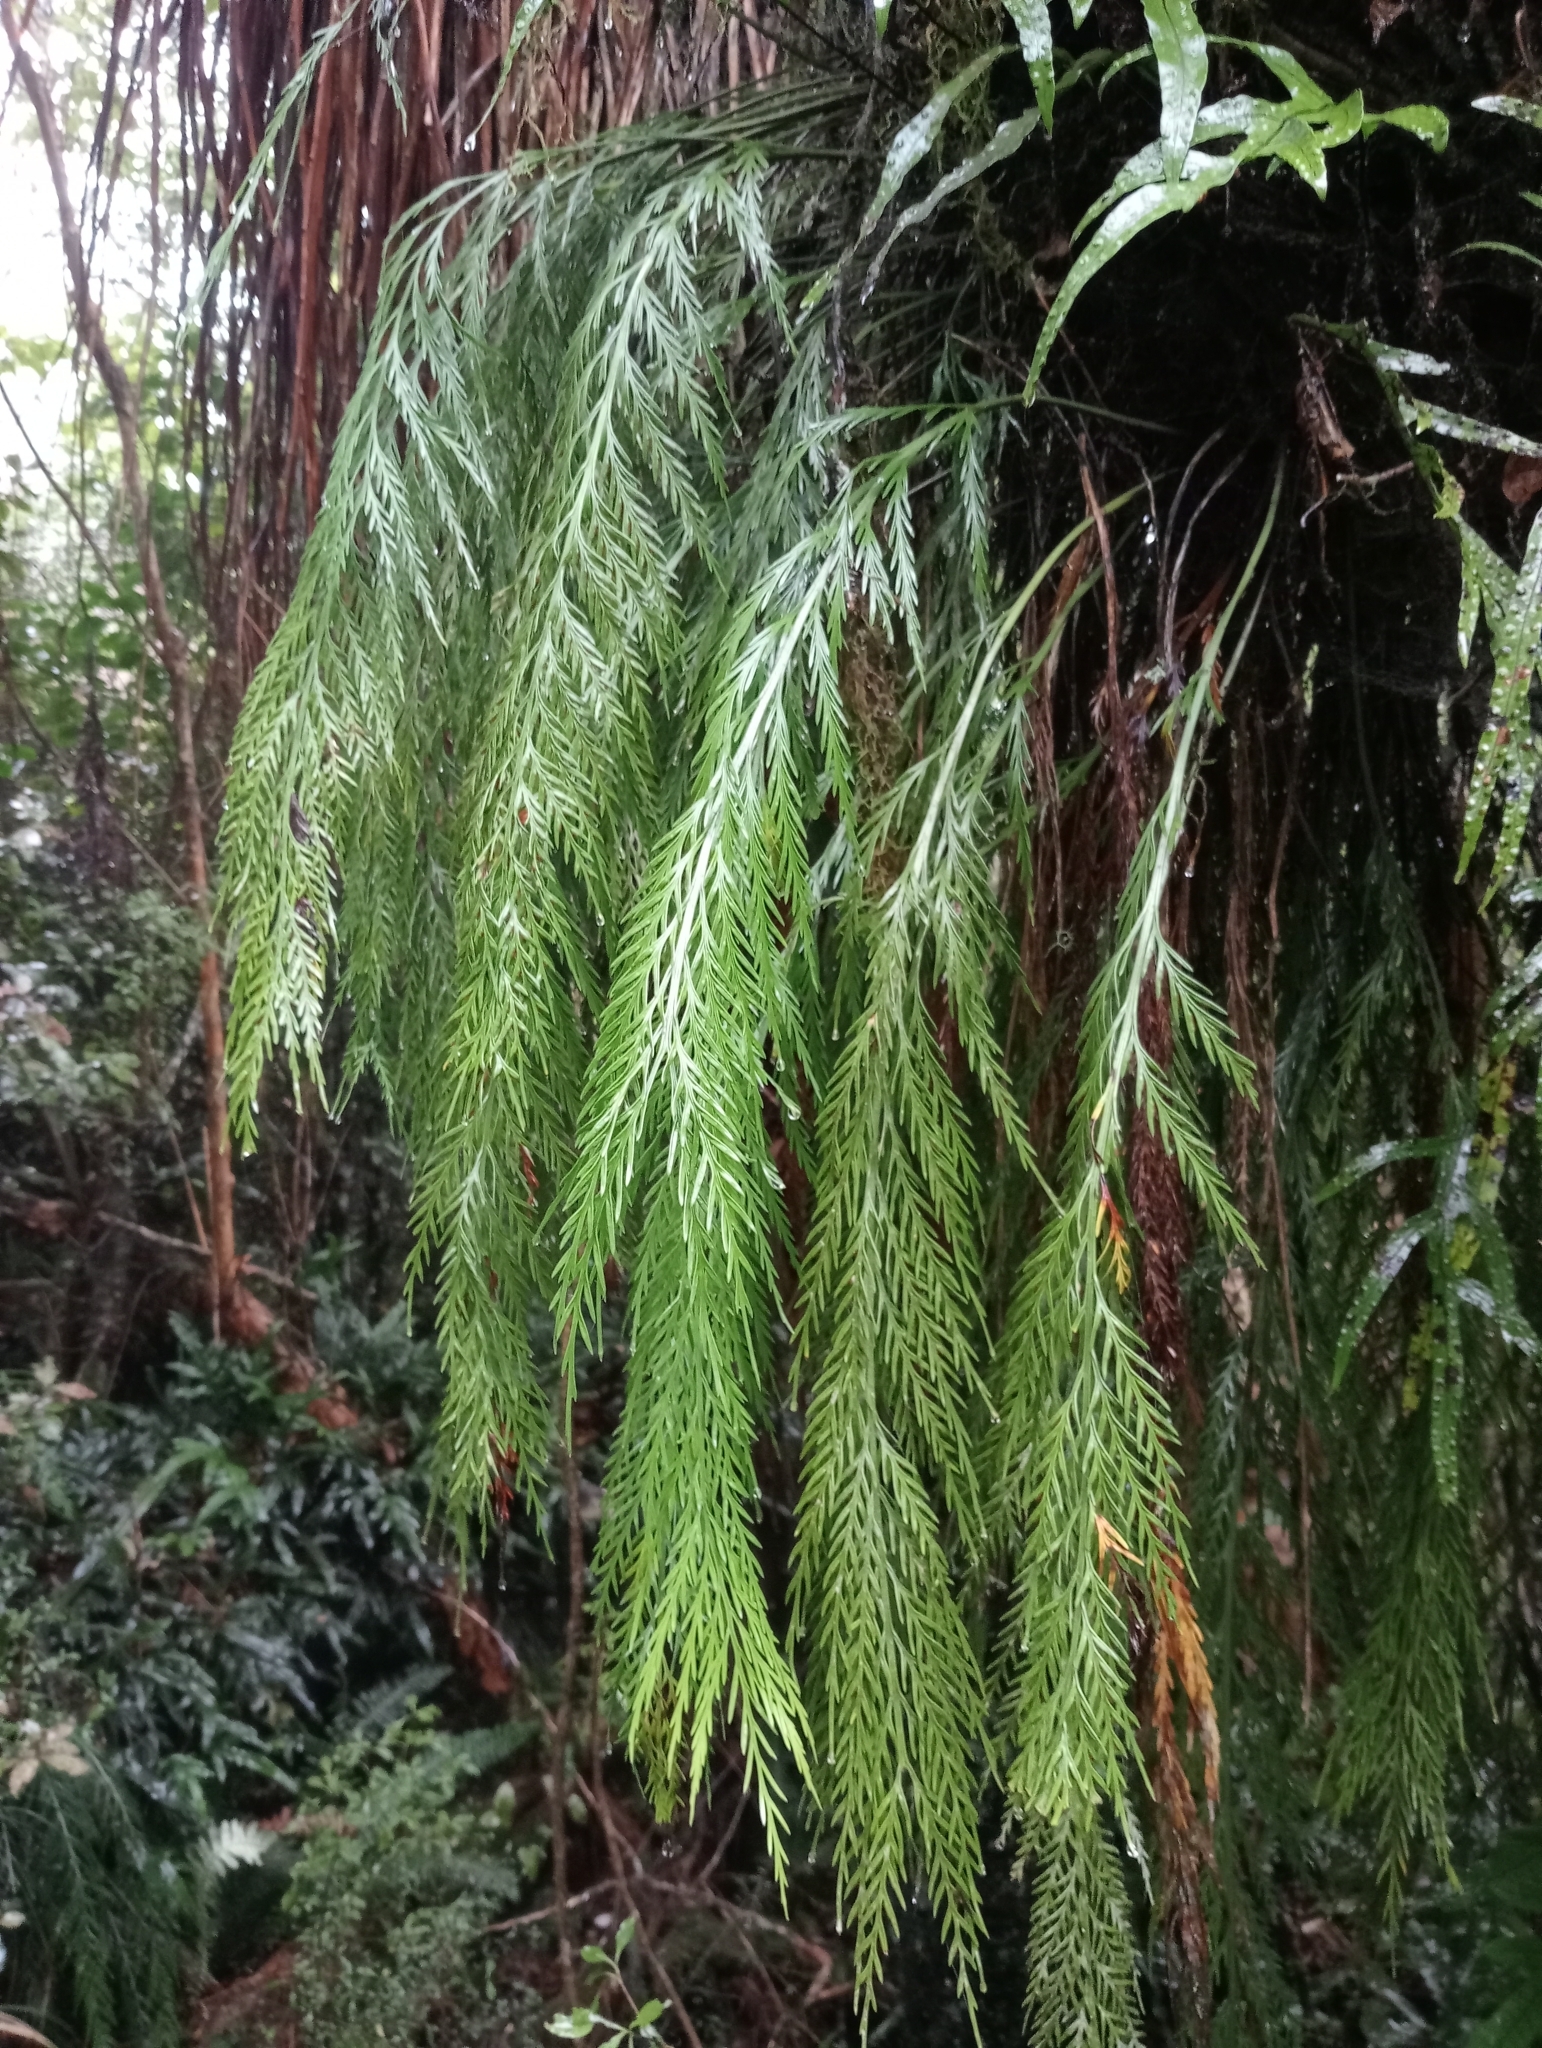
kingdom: Plantae
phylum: Tracheophyta
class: Polypodiopsida
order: Polypodiales
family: Aspleniaceae
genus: Asplenium
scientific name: Asplenium flaccidum
